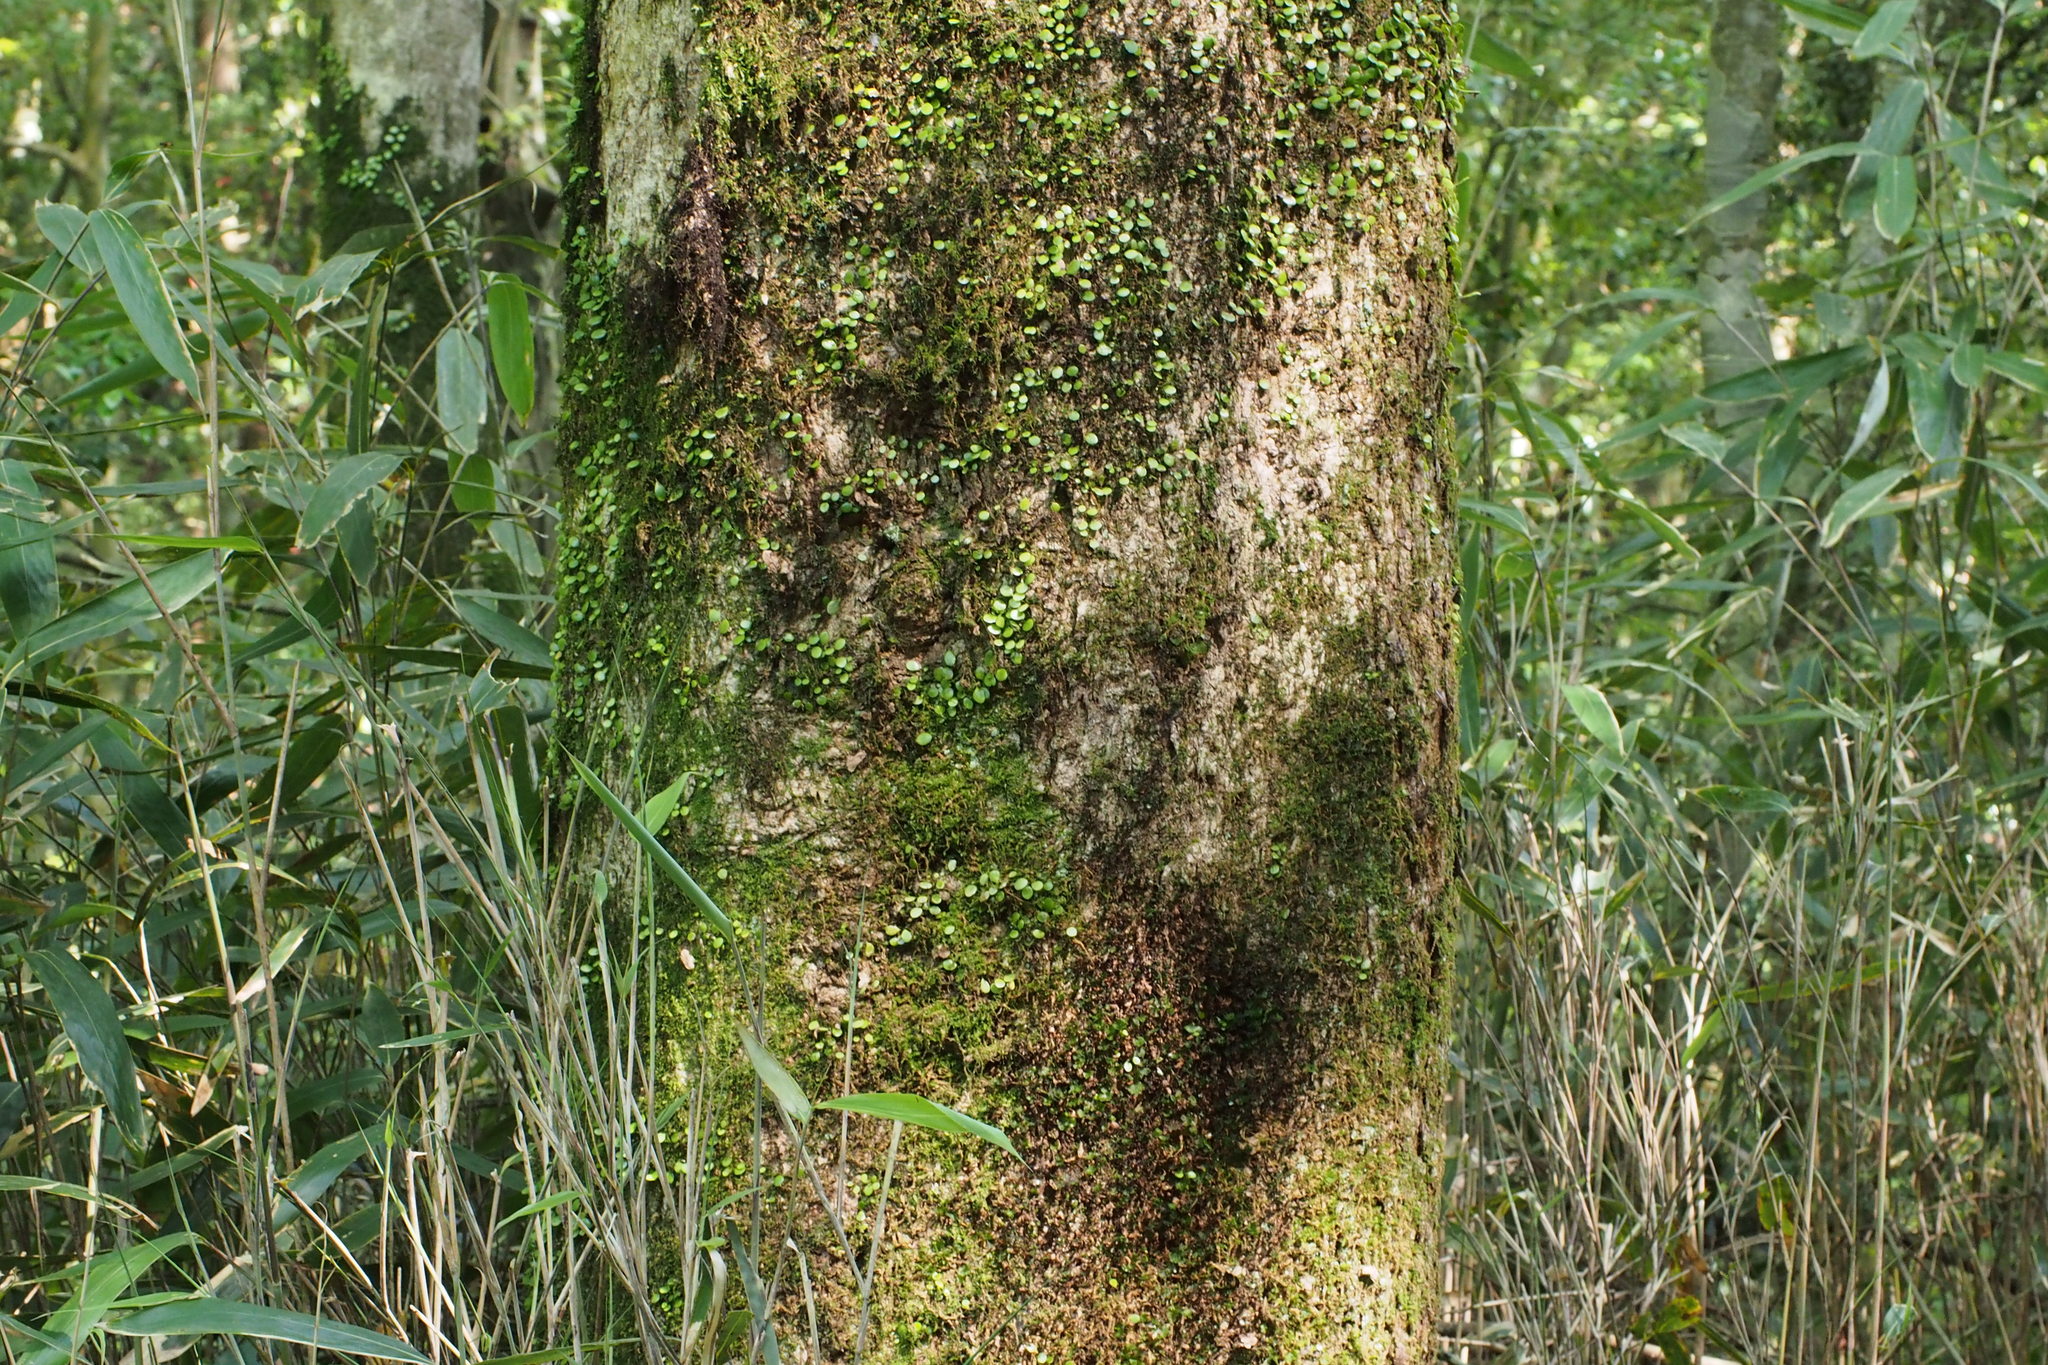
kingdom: Plantae
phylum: Tracheophyta
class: Magnoliopsida
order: Sapindales
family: Sapindaceae
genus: Acer
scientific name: Acer pictum
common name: The painted maple
